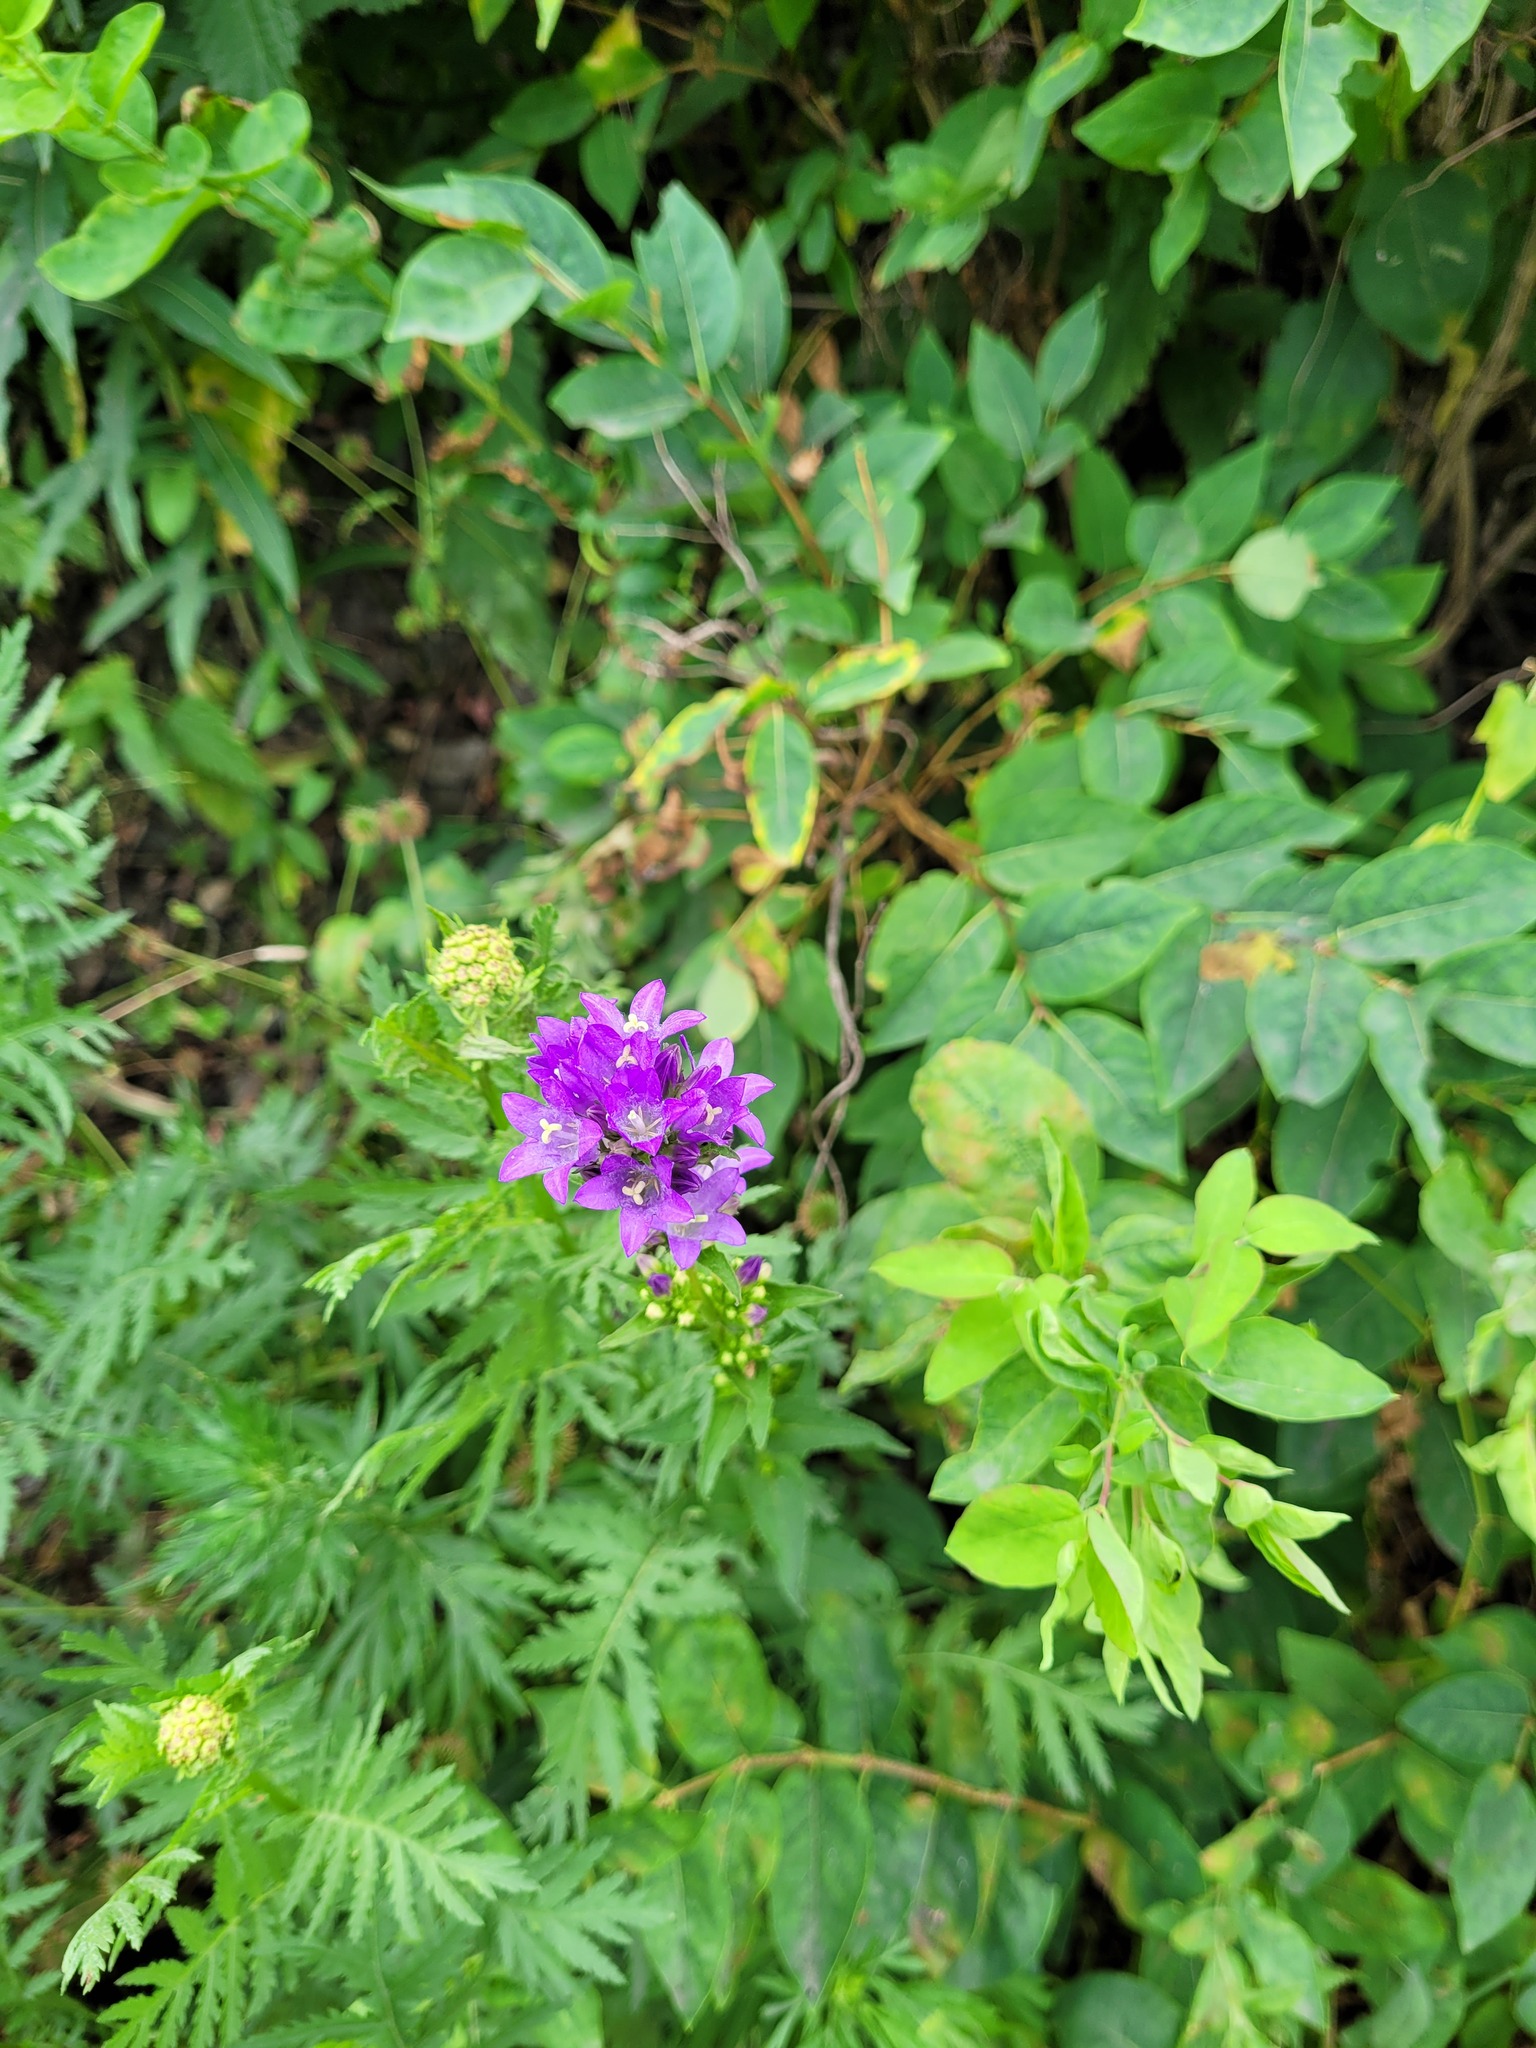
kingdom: Plantae
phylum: Tracheophyta
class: Magnoliopsida
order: Asterales
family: Campanulaceae
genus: Campanula
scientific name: Campanula glomerata
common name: Clustered bellflower
